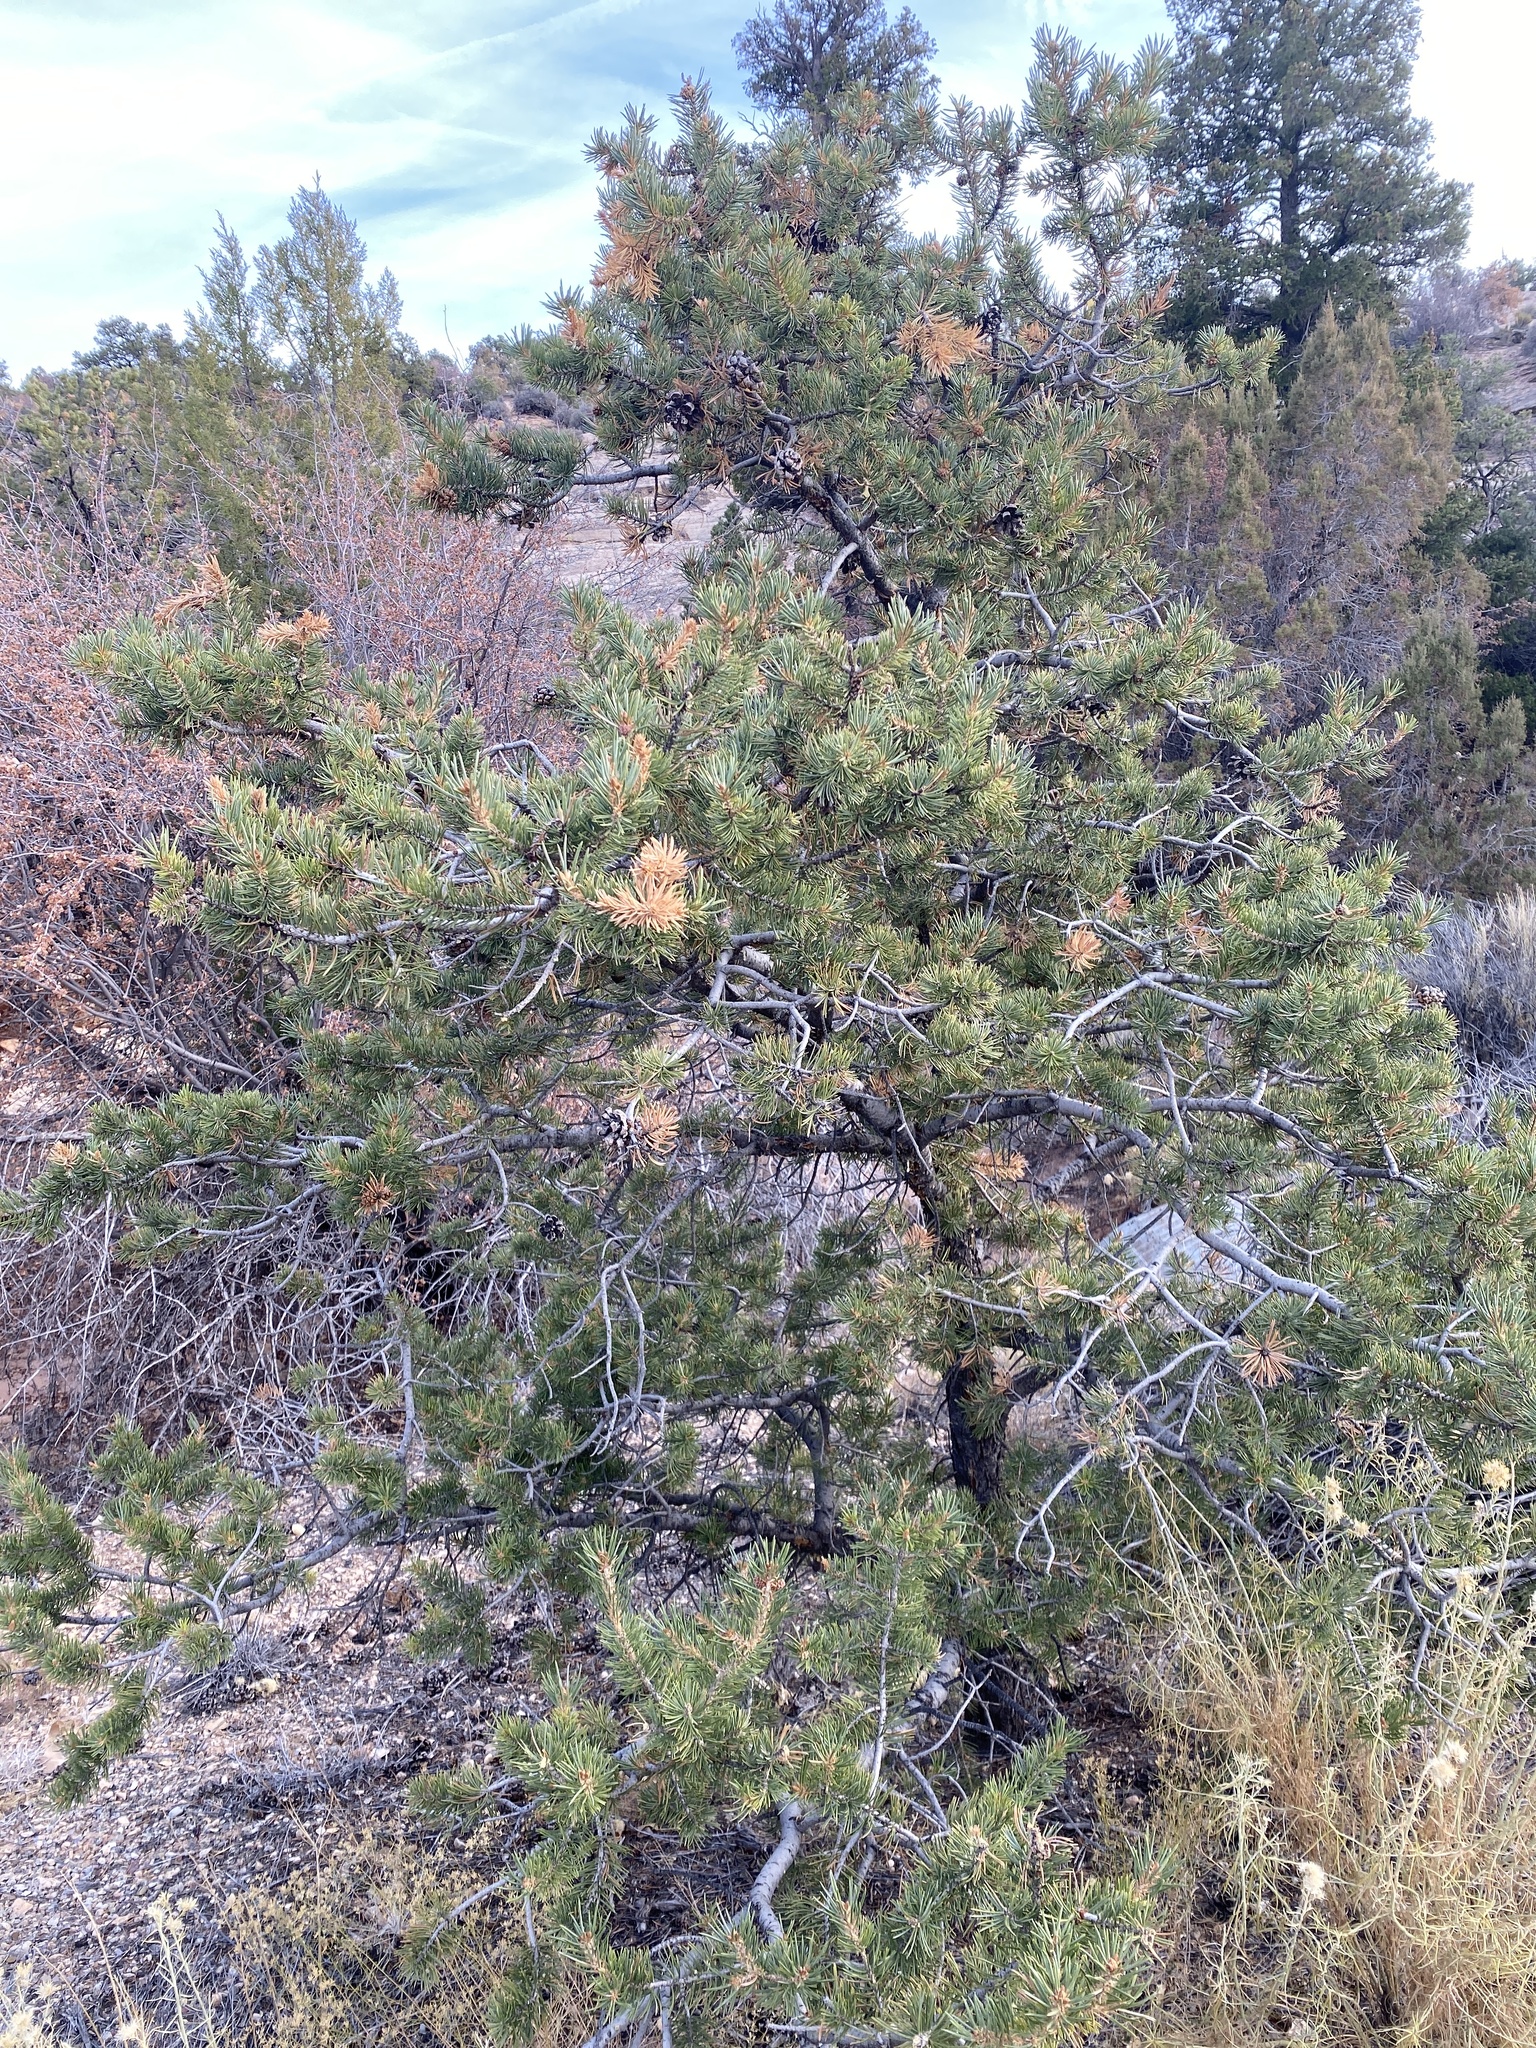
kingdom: Plantae
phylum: Tracheophyta
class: Pinopsida
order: Pinales
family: Pinaceae
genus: Pinus
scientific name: Pinus edulis
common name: Colorado pinyon
